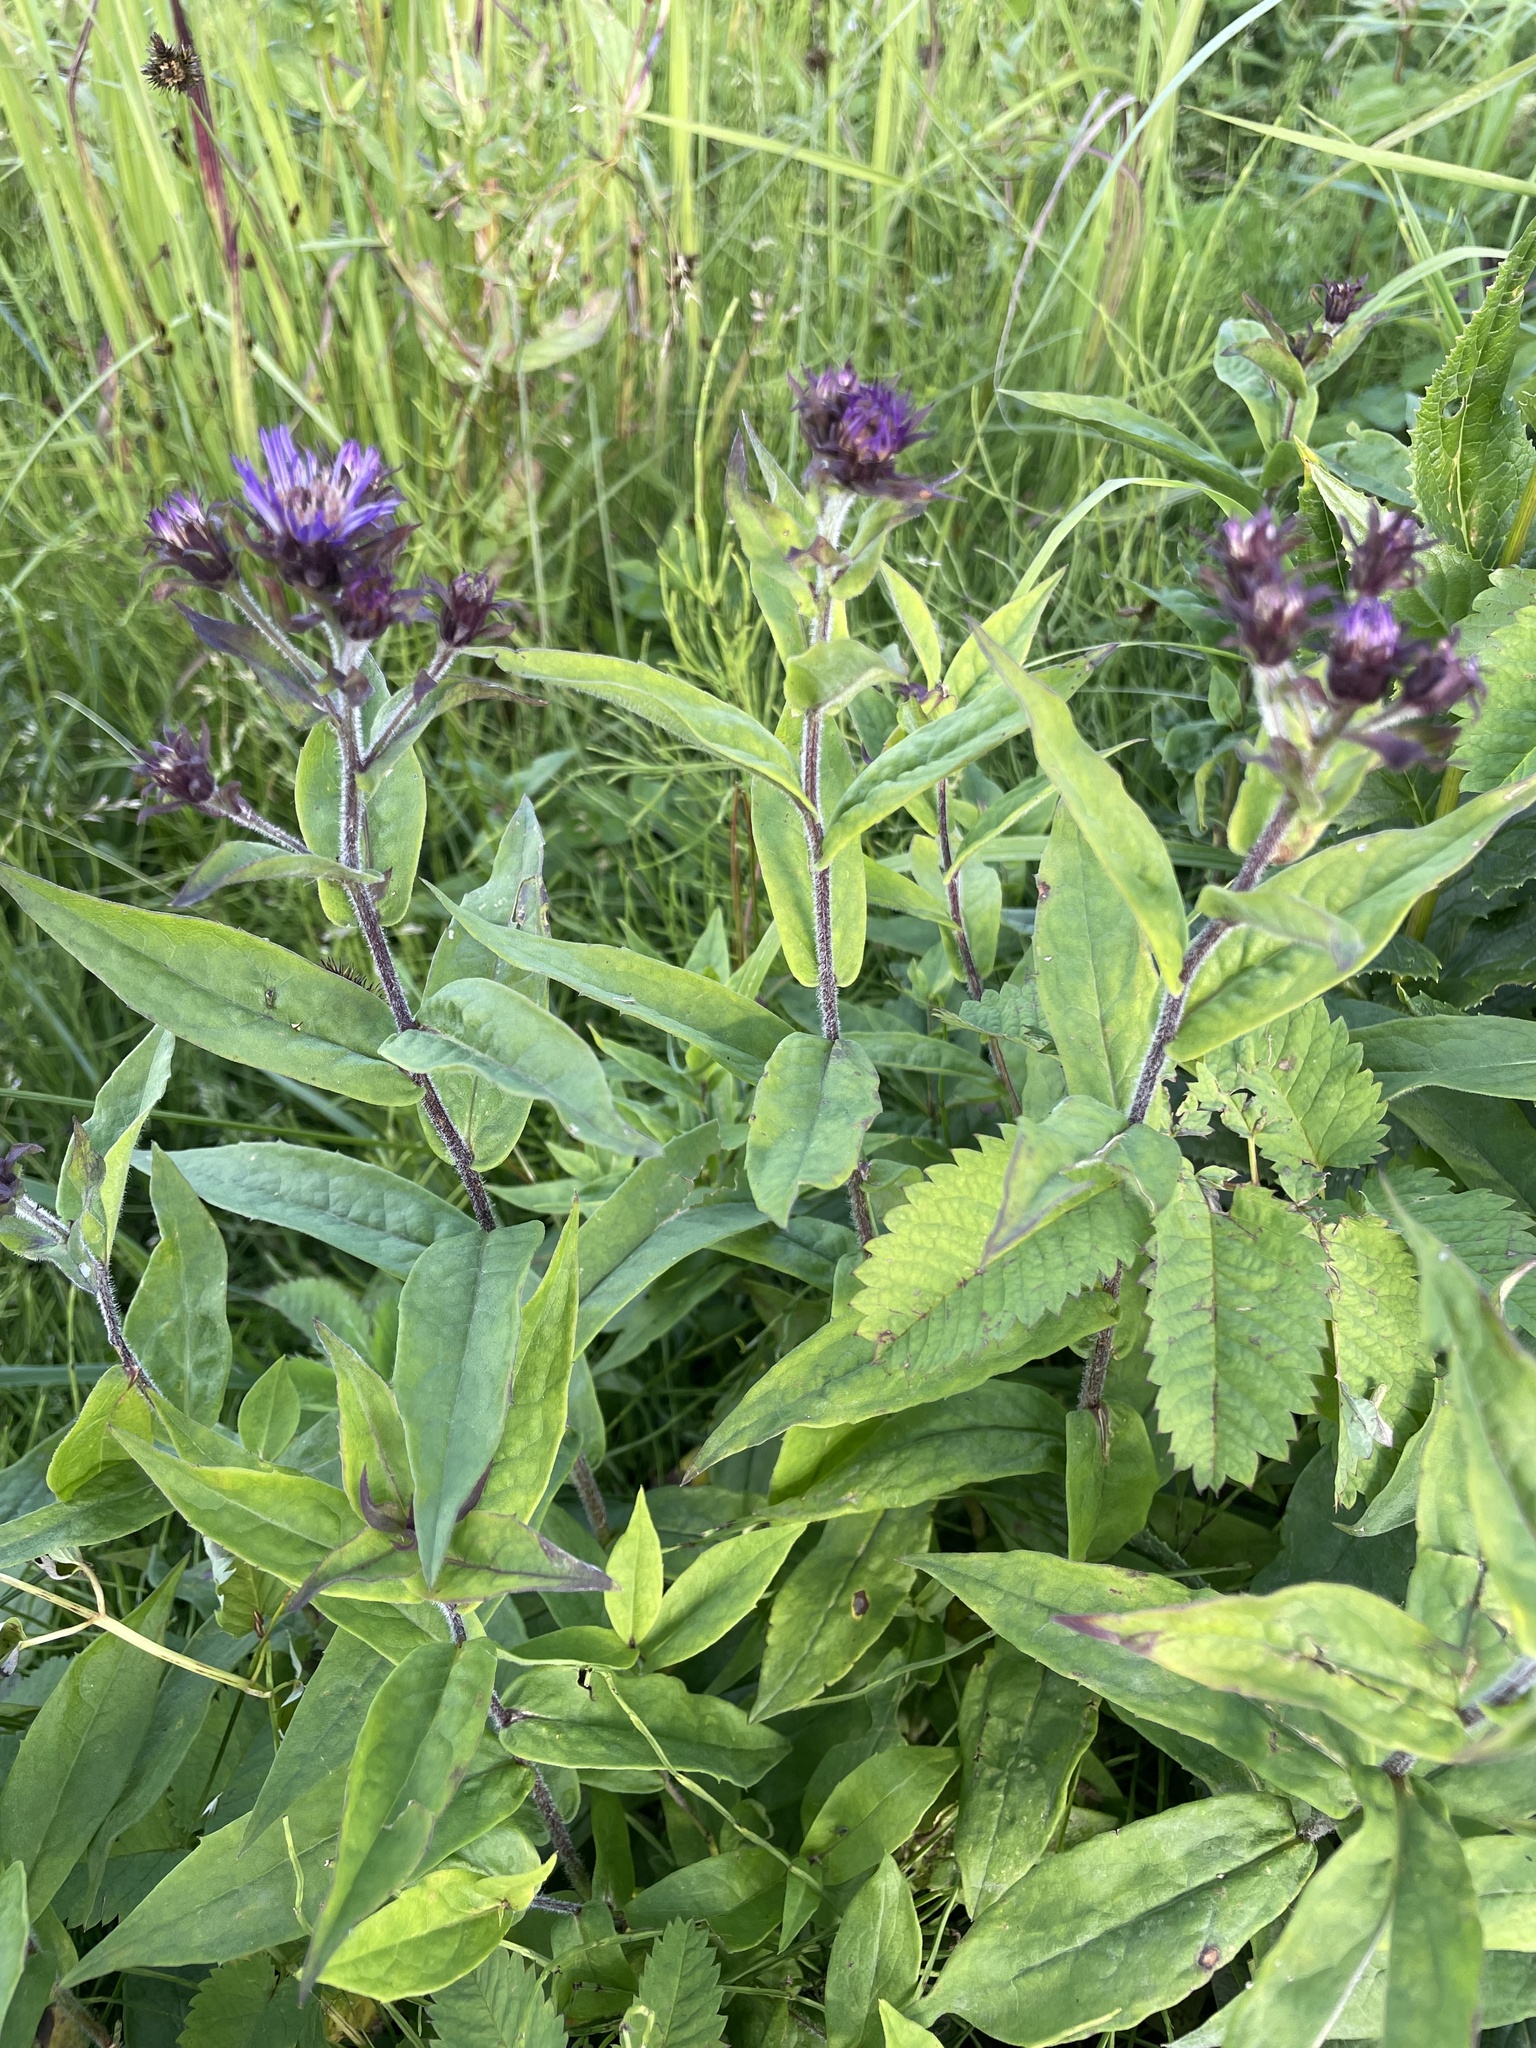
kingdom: Plantae
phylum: Tracheophyta
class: Magnoliopsida
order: Asterales
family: Asteraceae
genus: Canadanthus
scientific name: Canadanthus modestus
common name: Great northern aster
